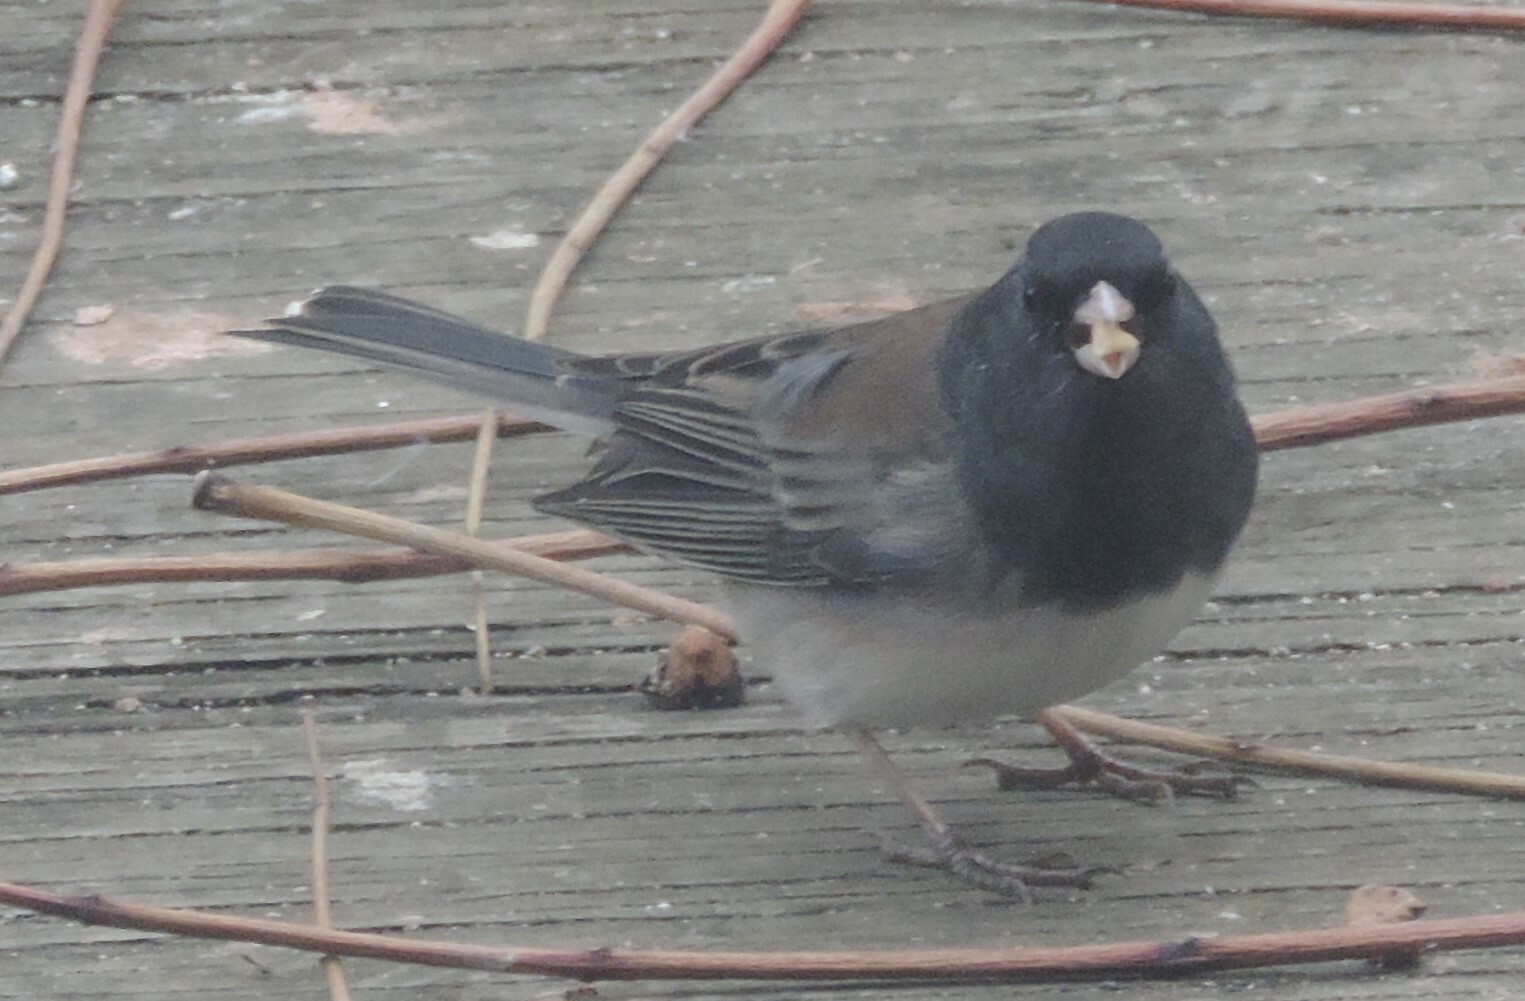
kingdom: Animalia
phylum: Chordata
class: Aves
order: Passeriformes
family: Passerellidae
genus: Junco
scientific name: Junco hyemalis
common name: Dark-eyed junco
